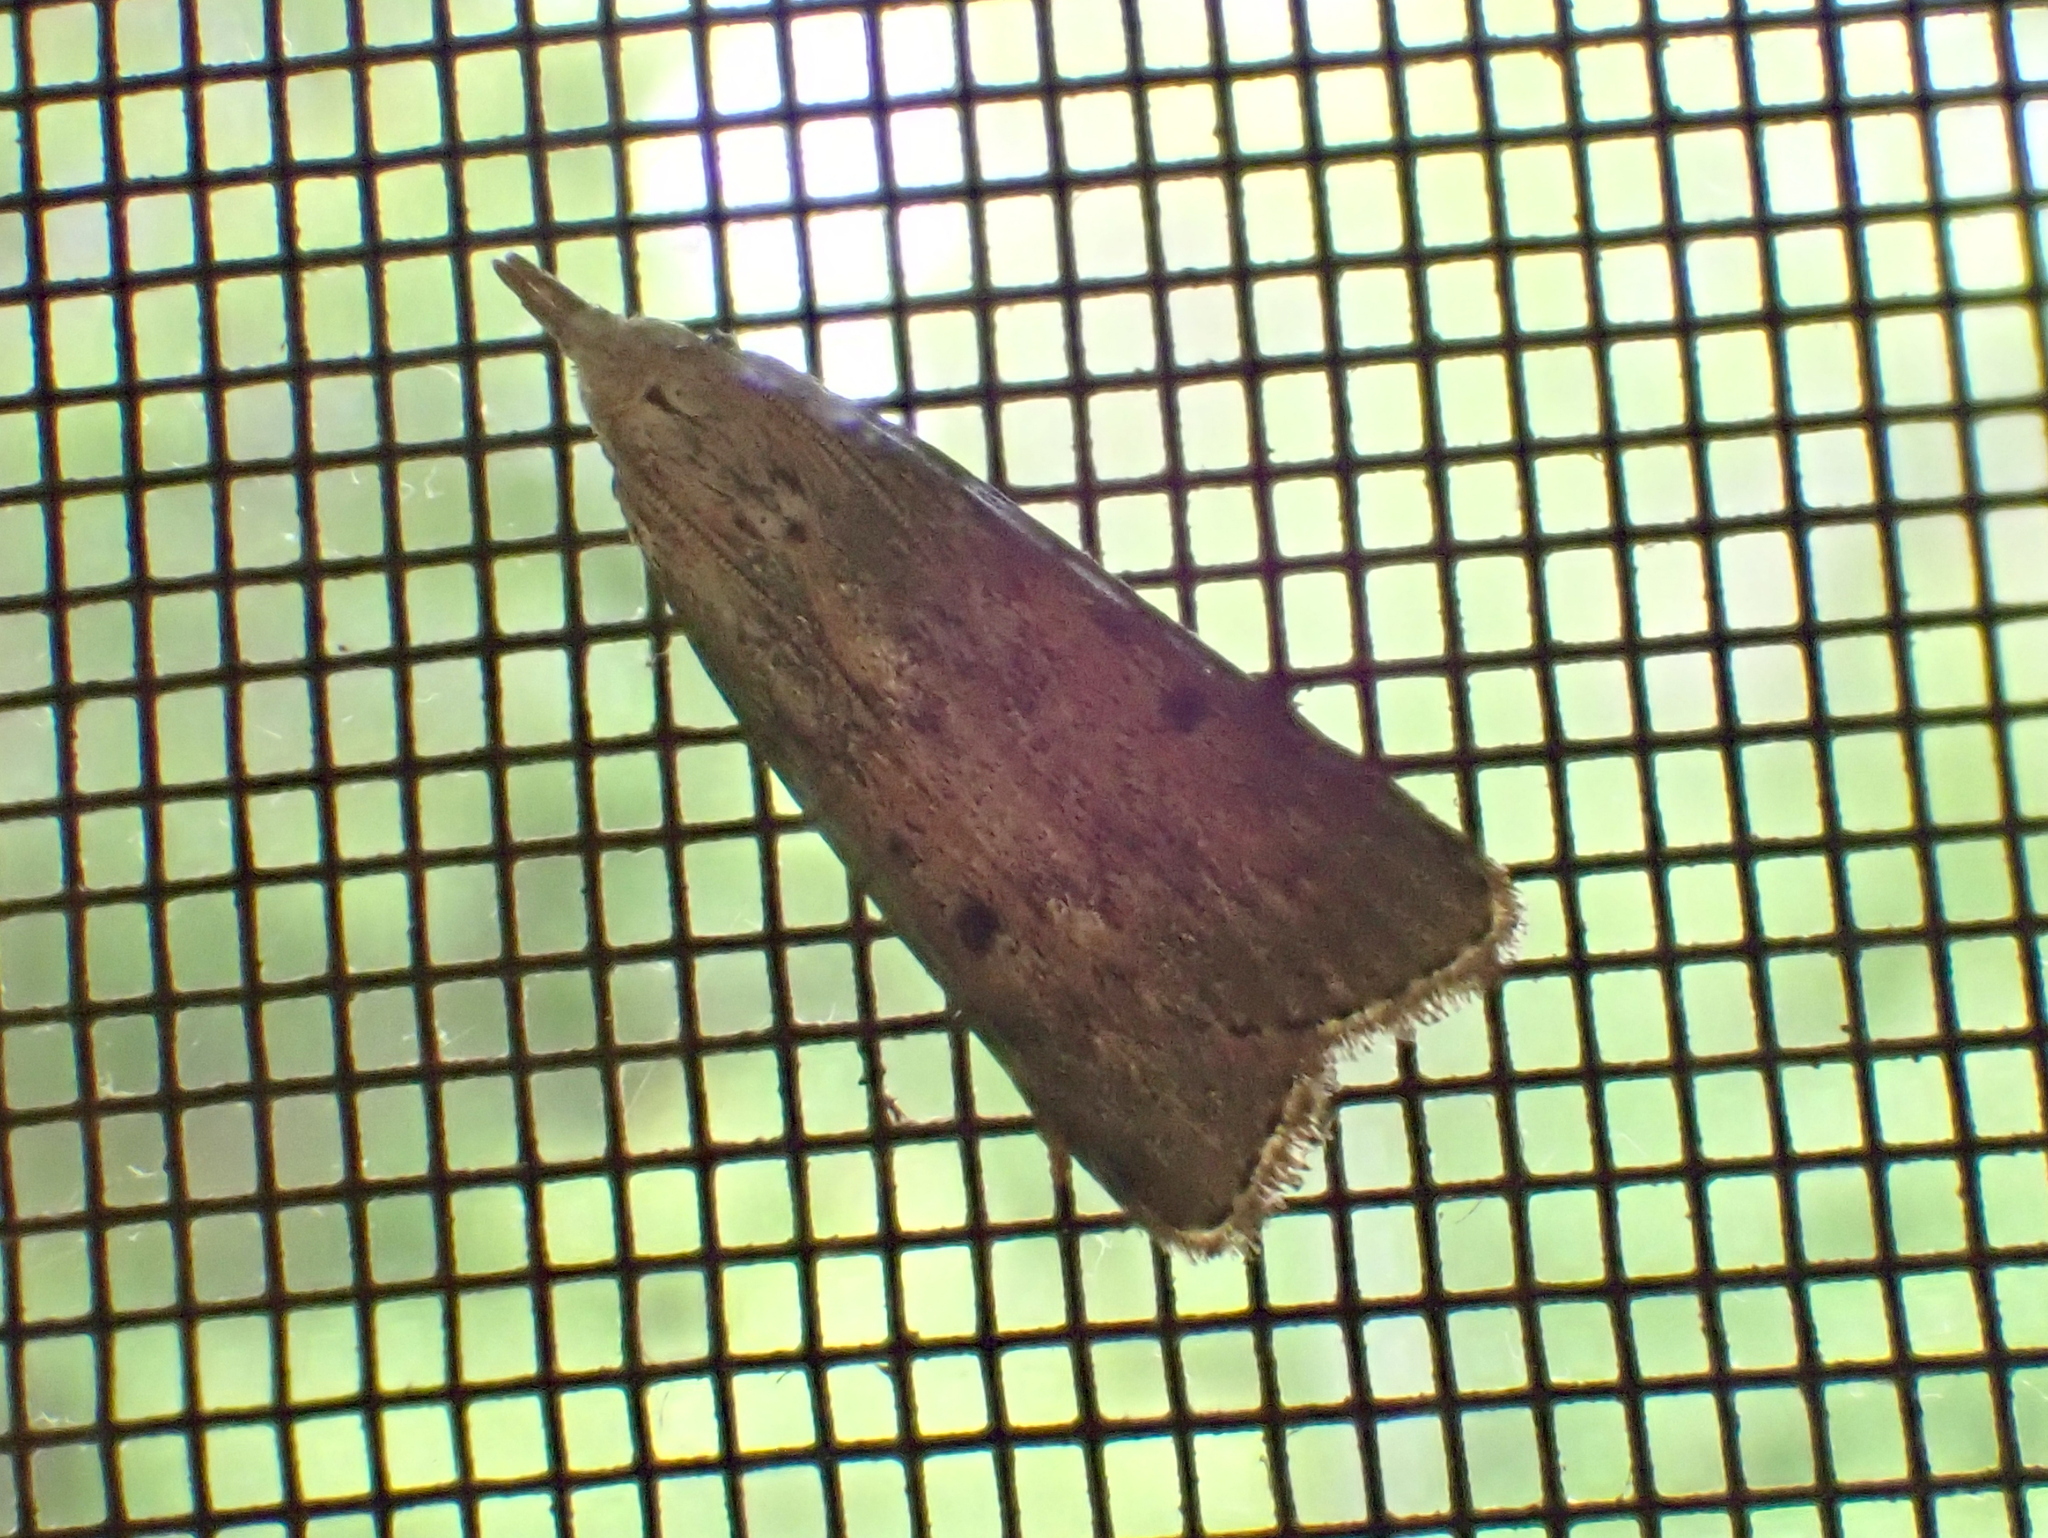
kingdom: Animalia
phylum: Arthropoda
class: Insecta
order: Lepidoptera
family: Pyralidae
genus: Aphomia
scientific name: Aphomia sociella
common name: Bee moth
